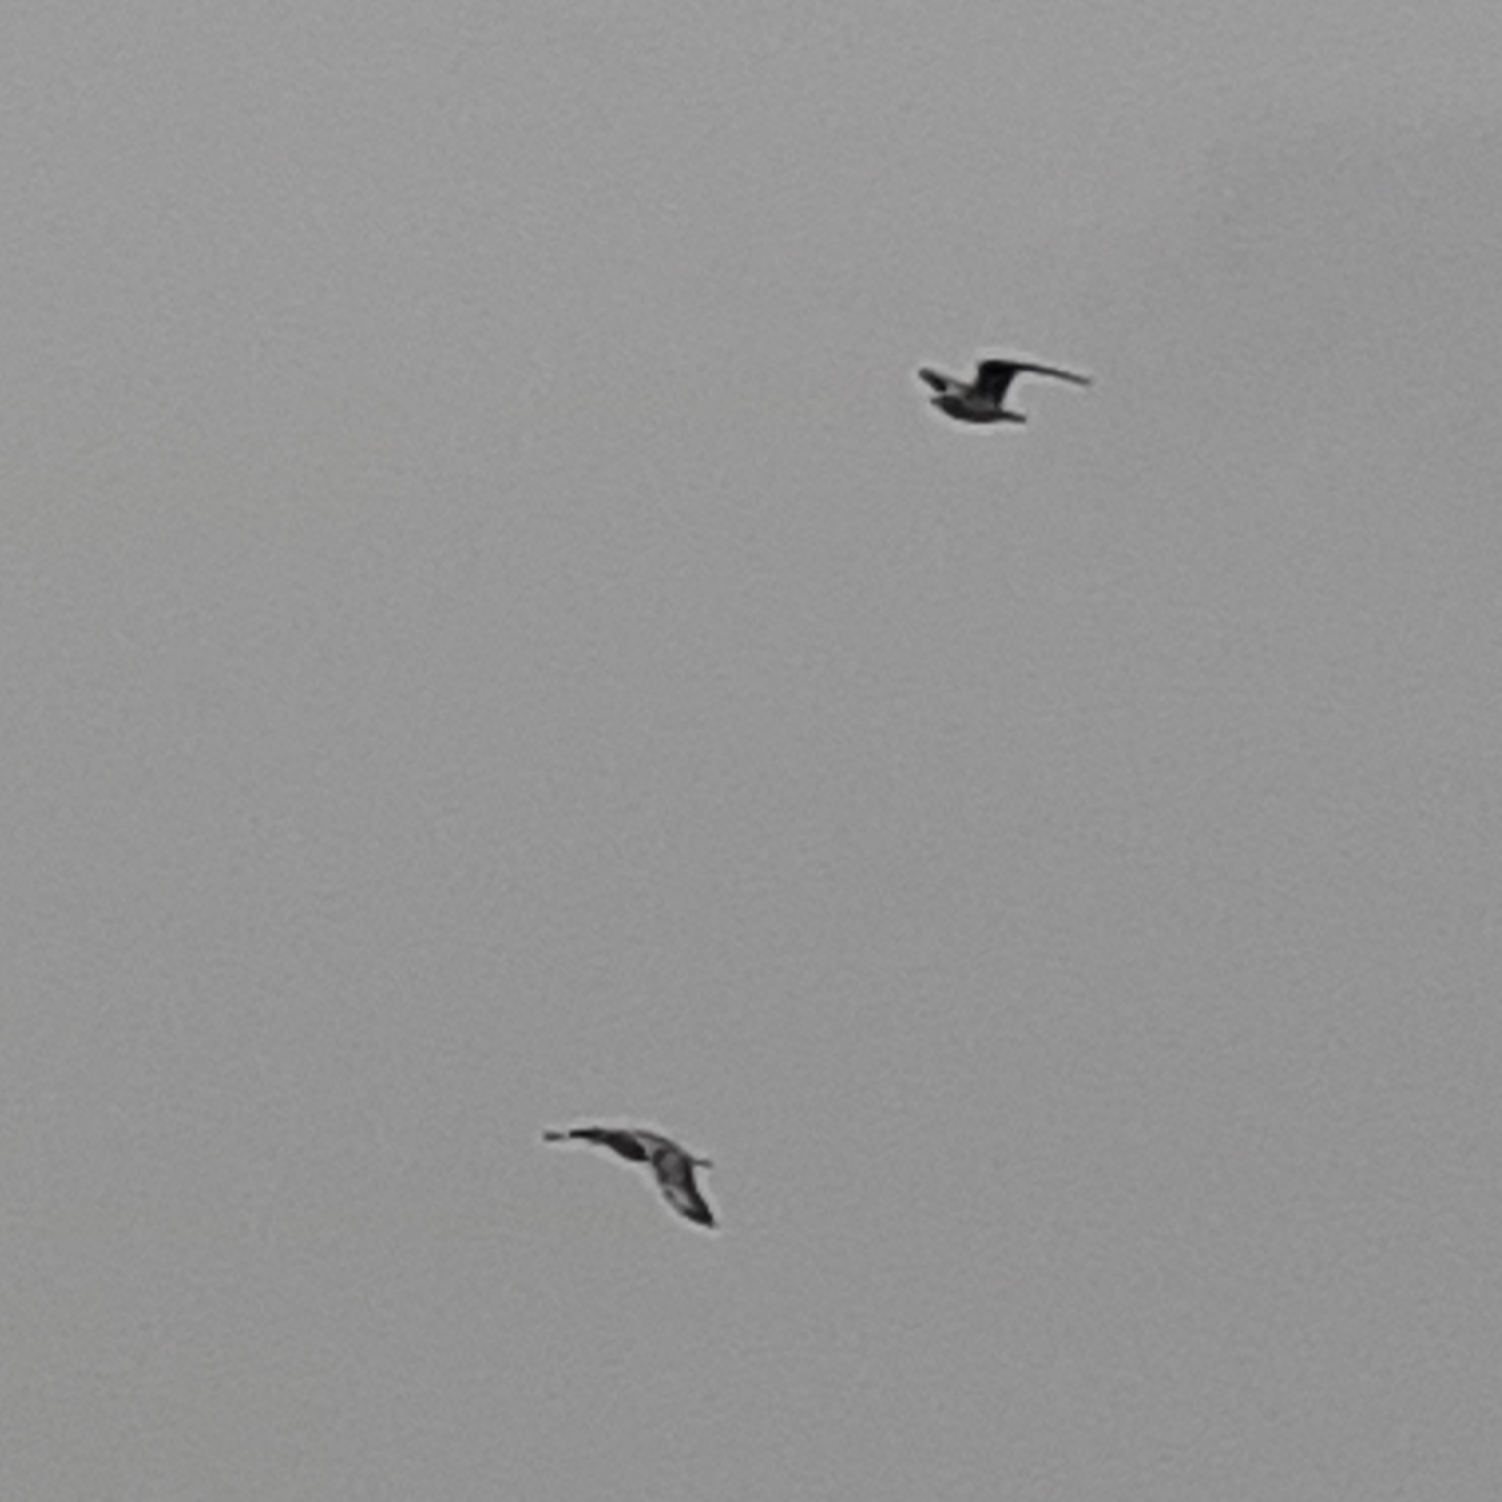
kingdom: Animalia
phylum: Chordata
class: Aves
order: Charadriiformes
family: Laridae
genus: Chroicocephalus
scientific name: Chroicocephalus ridibundus
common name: Black-headed gull
